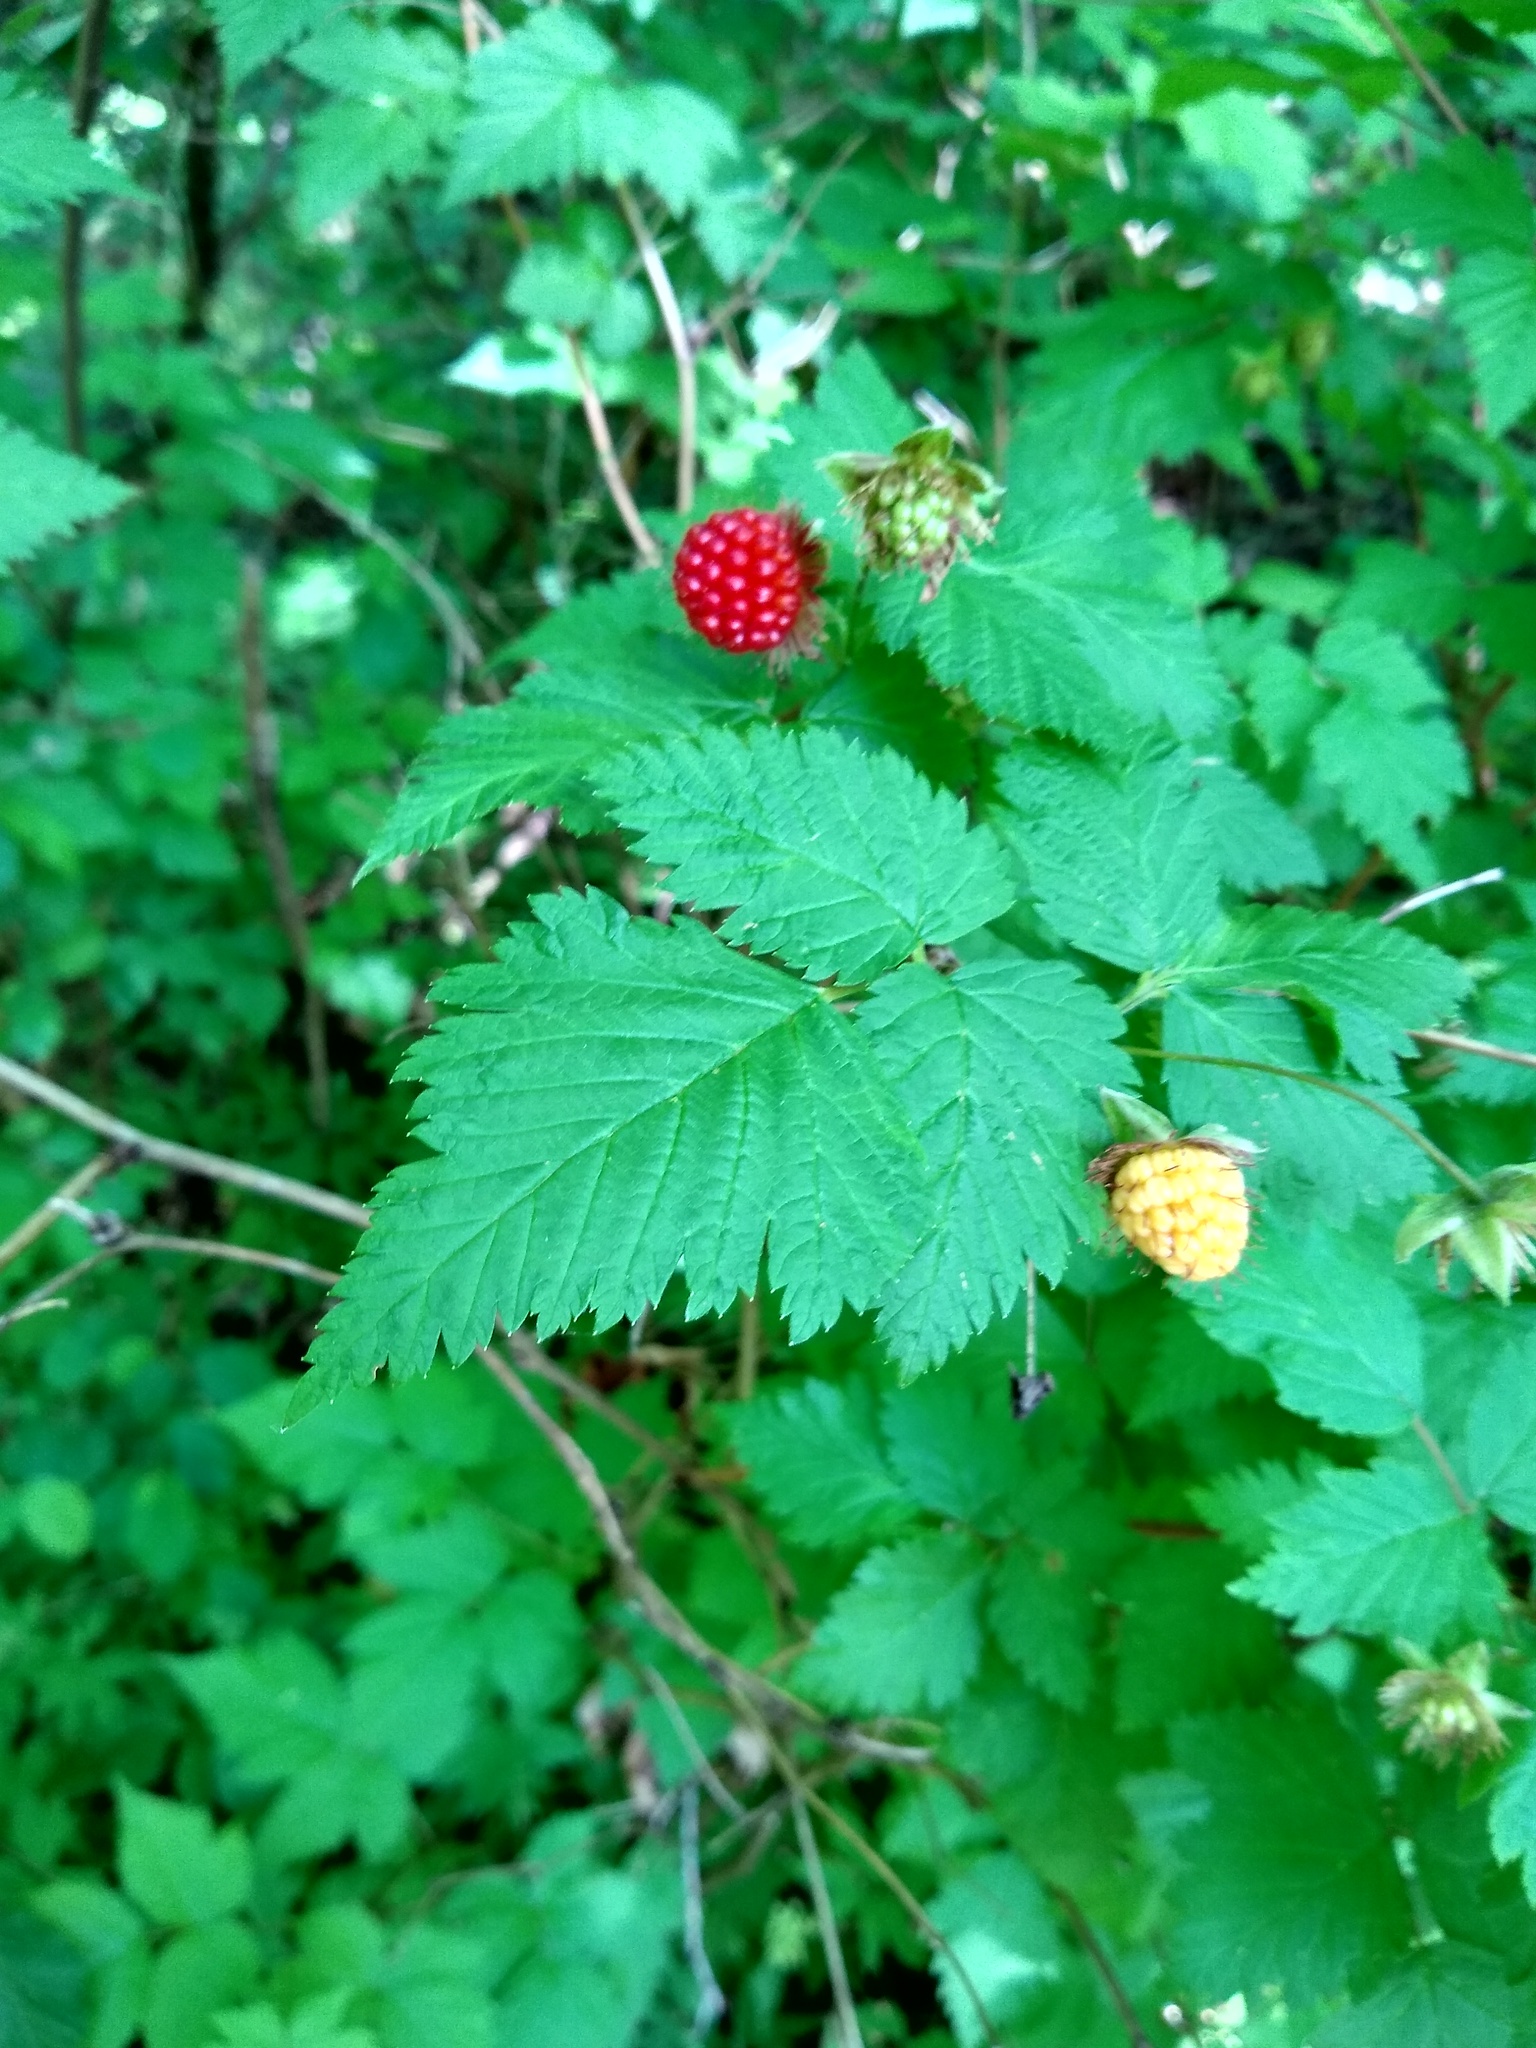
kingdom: Plantae
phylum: Tracheophyta
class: Magnoliopsida
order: Rosales
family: Rosaceae
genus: Rubus
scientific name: Rubus spectabilis
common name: Salmonberry
